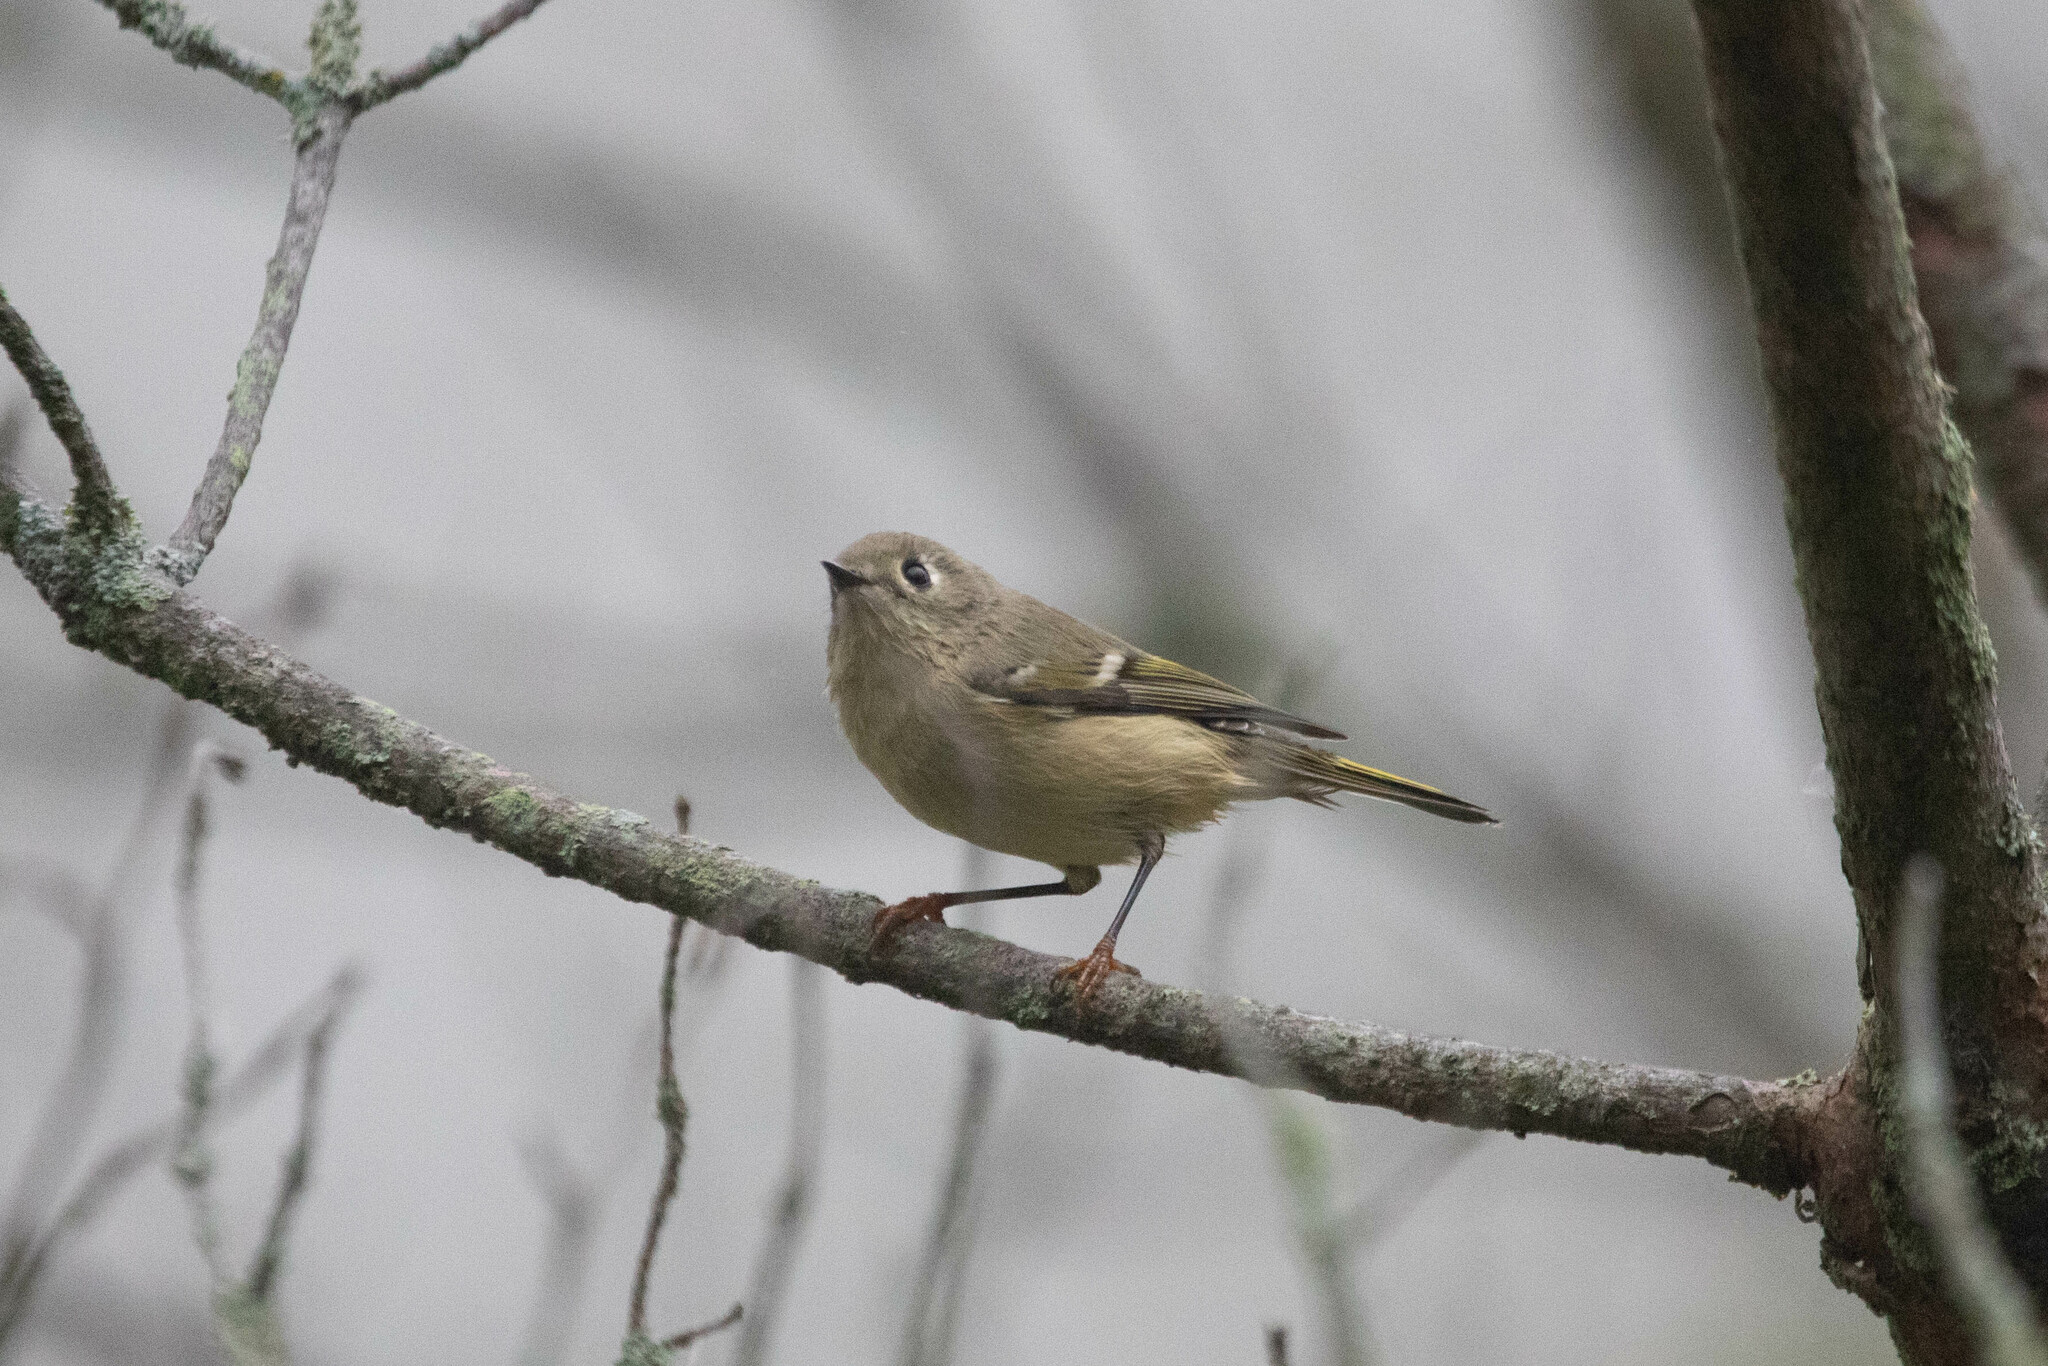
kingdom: Animalia
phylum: Chordata
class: Aves
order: Passeriformes
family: Regulidae
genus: Regulus
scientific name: Regulus calendula
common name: Ruby-crowned kinglet
